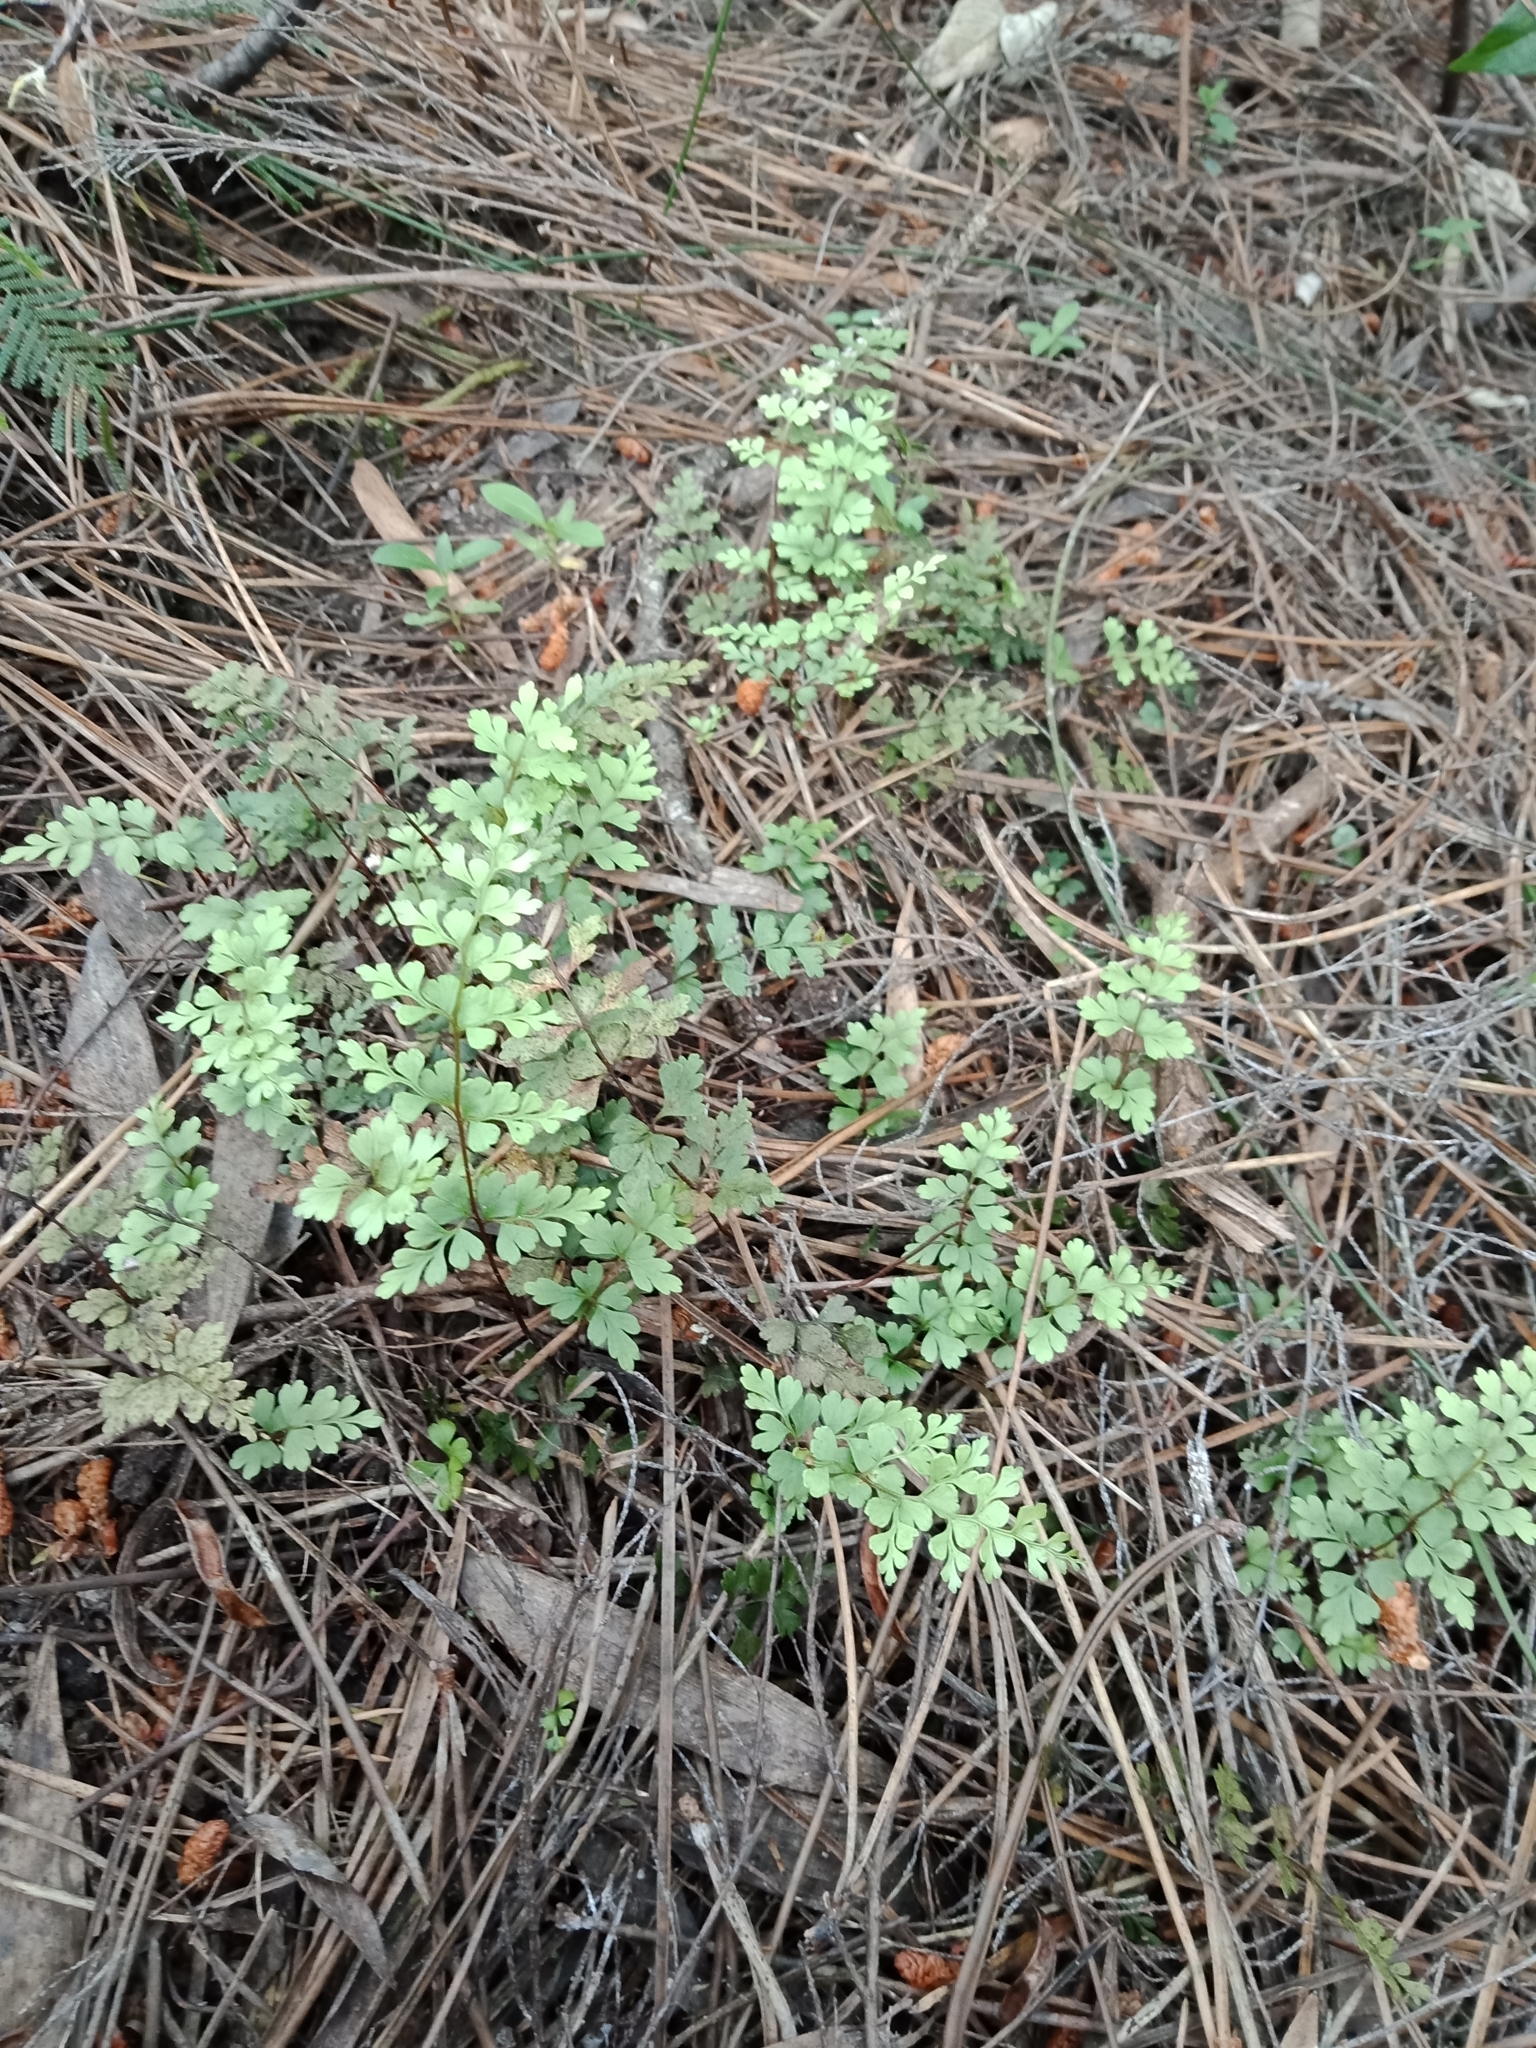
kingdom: Plantae
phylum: Tracheophyta
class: Polypodiopsida
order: Polypodiales
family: Lindsaeaceae
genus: Lindsaea
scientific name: Lindsaea trichomanoides
